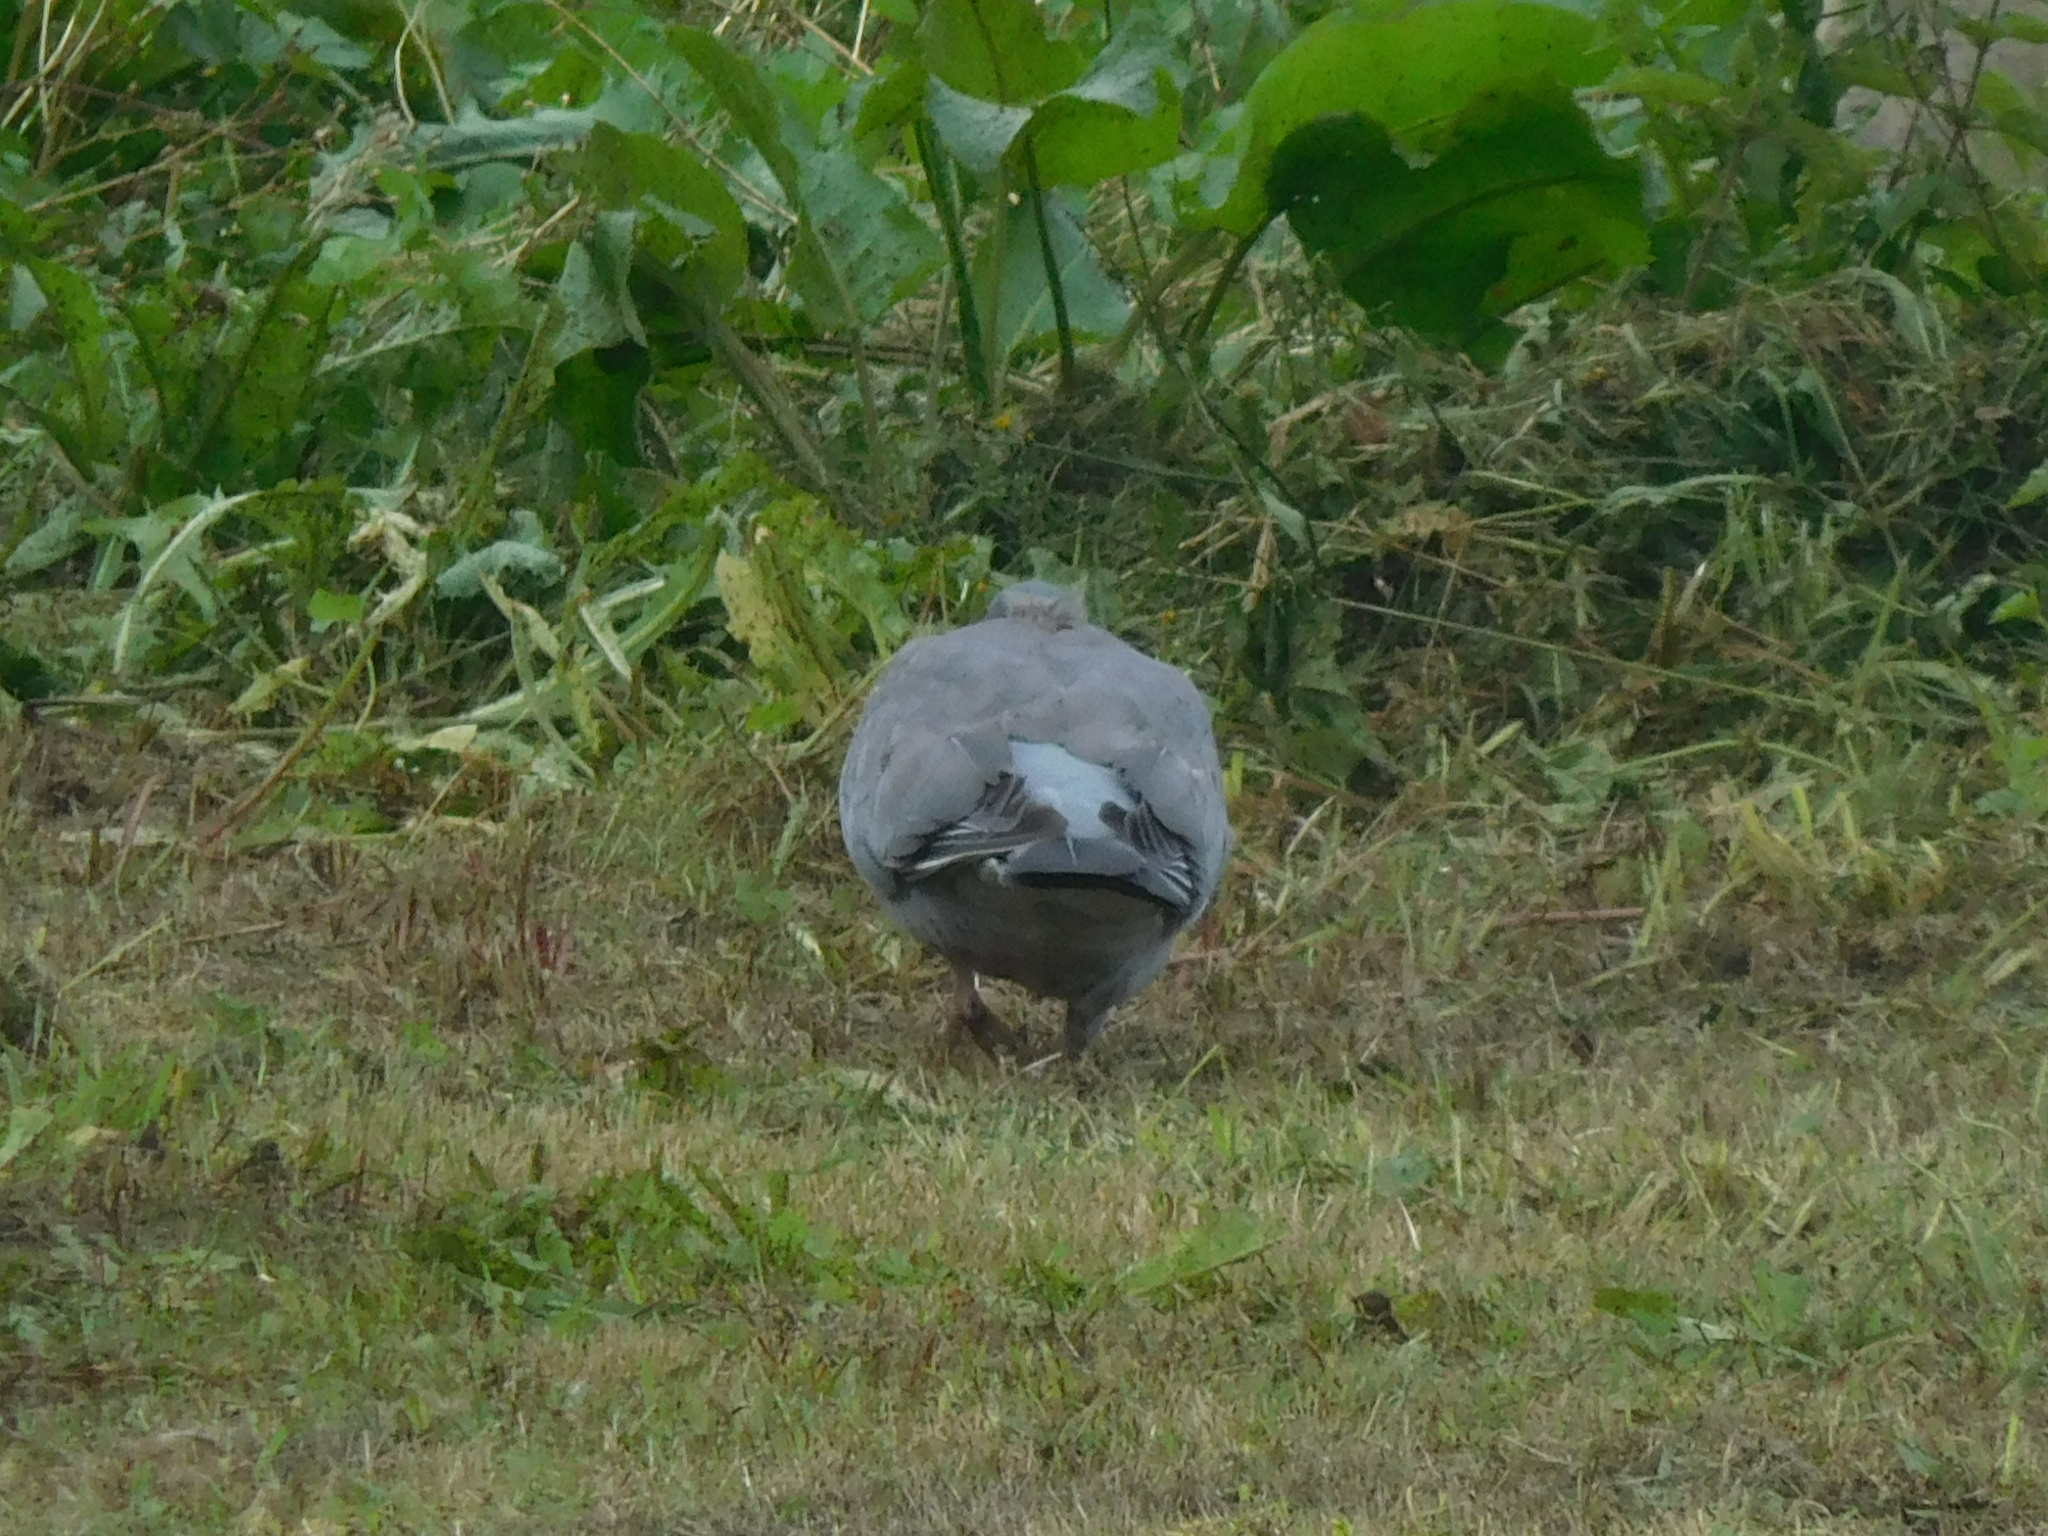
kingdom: Animalia
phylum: Chordata
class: Aves
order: Columbiformes
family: Columbidae
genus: Columba
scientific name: Columba palumbus
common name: Common wood pigeon
